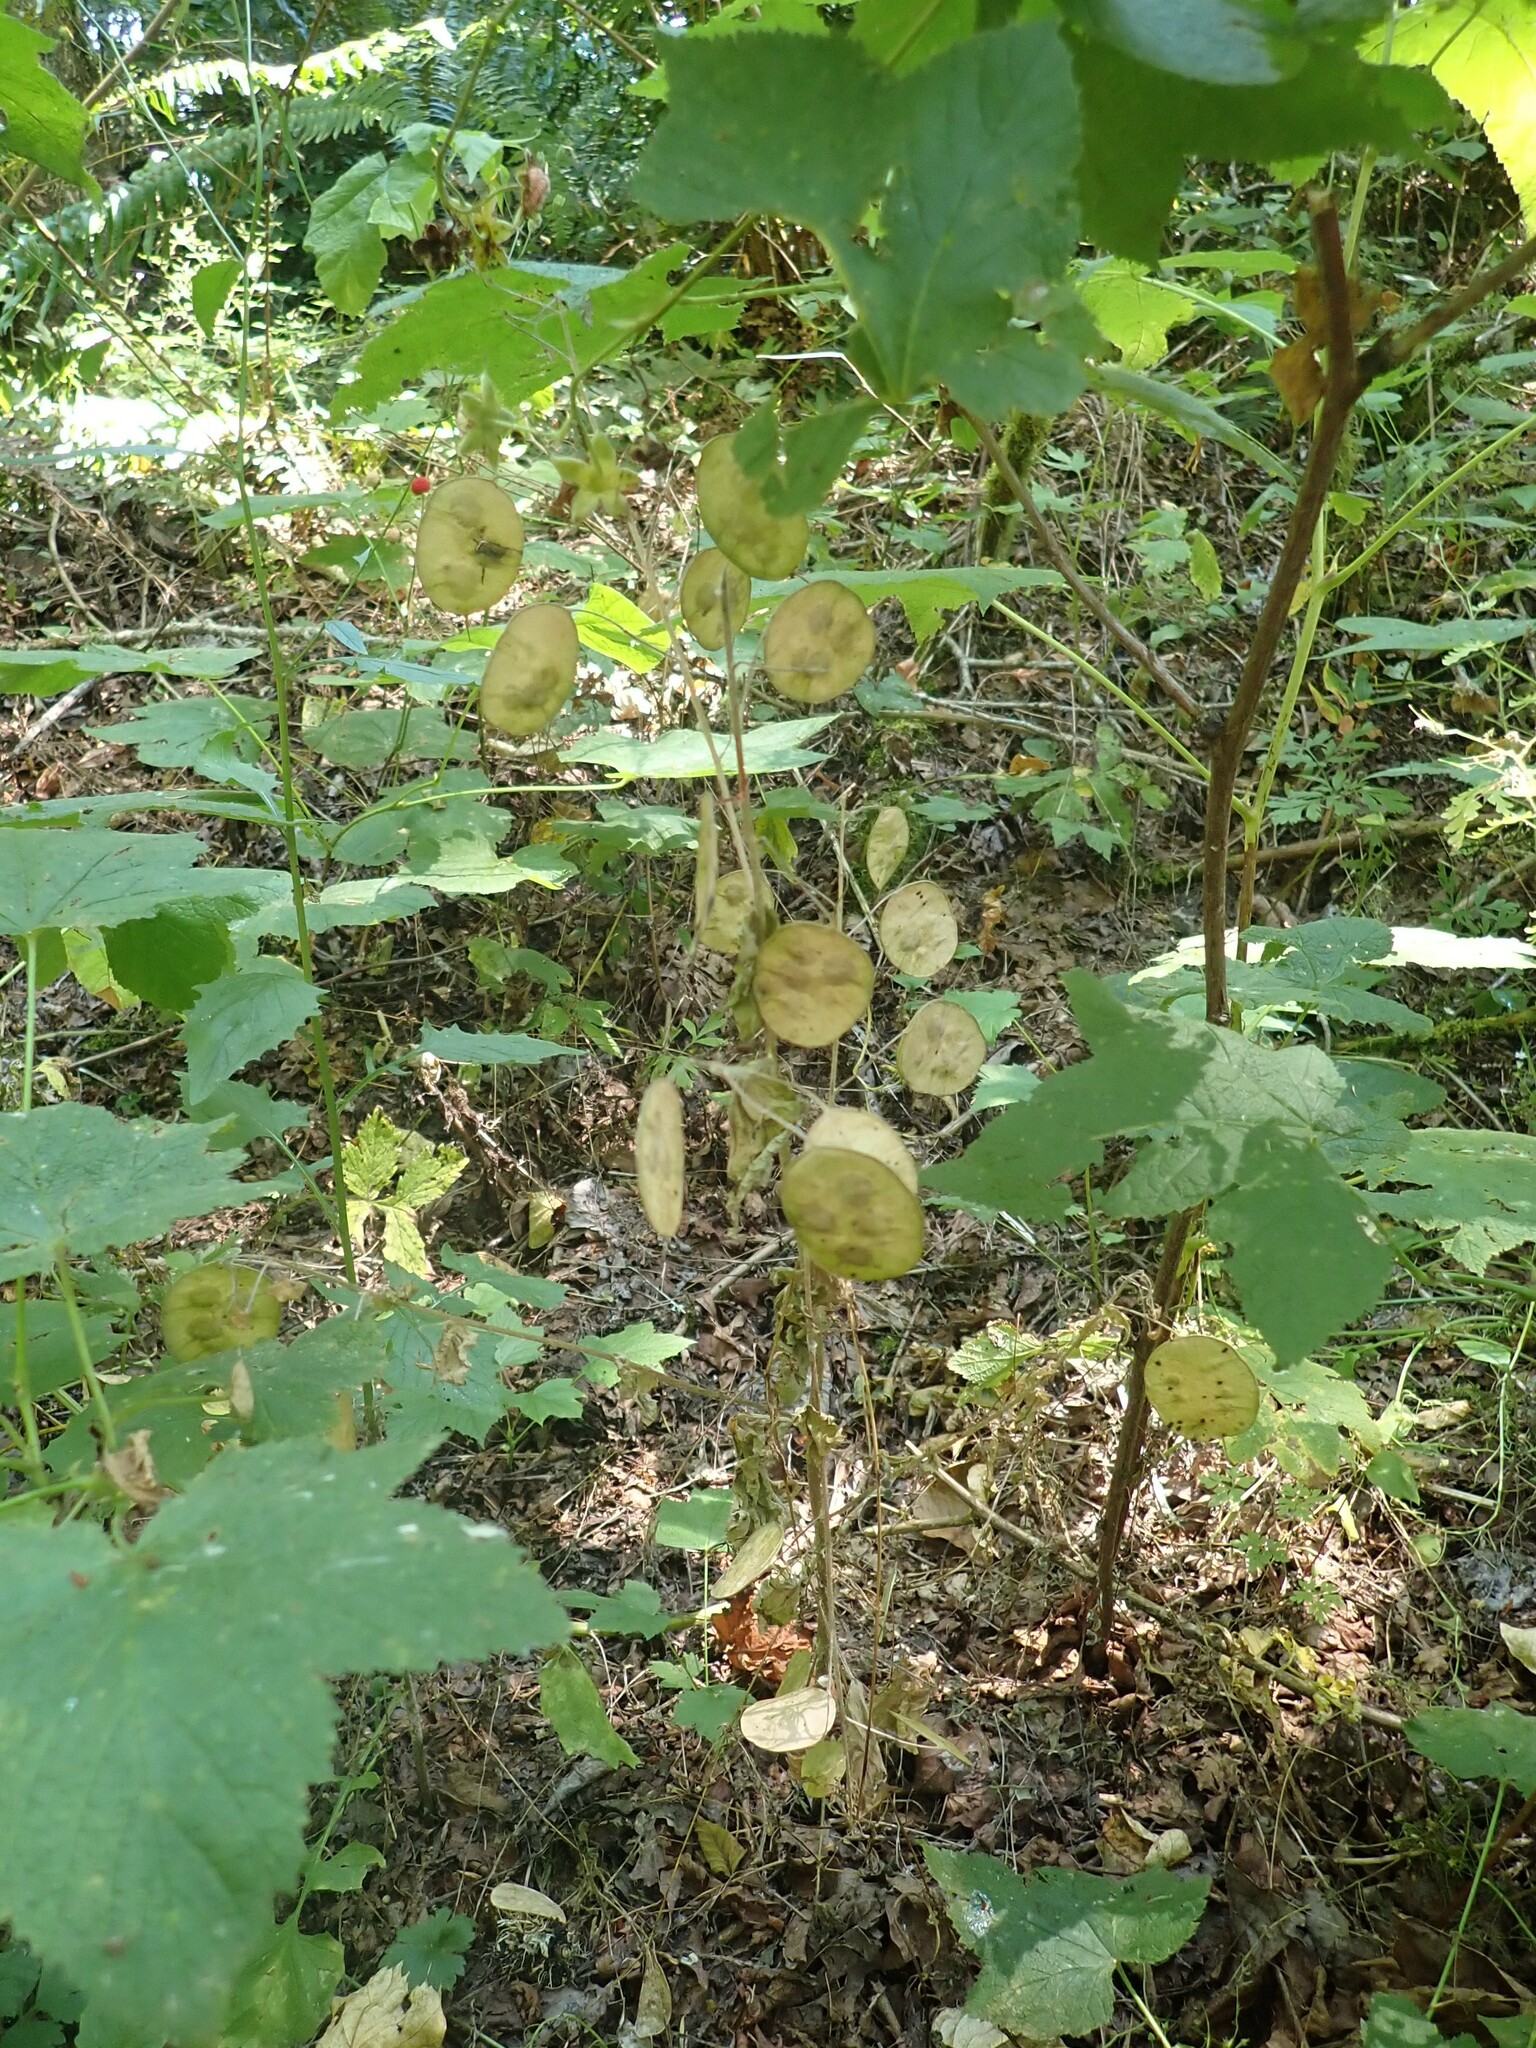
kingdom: Plantae
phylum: Tracheophyta
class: Magnoliopsida
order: Brassicales
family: Brassicaceae
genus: Lunaria
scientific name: Lunaria annua
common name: Honesty
